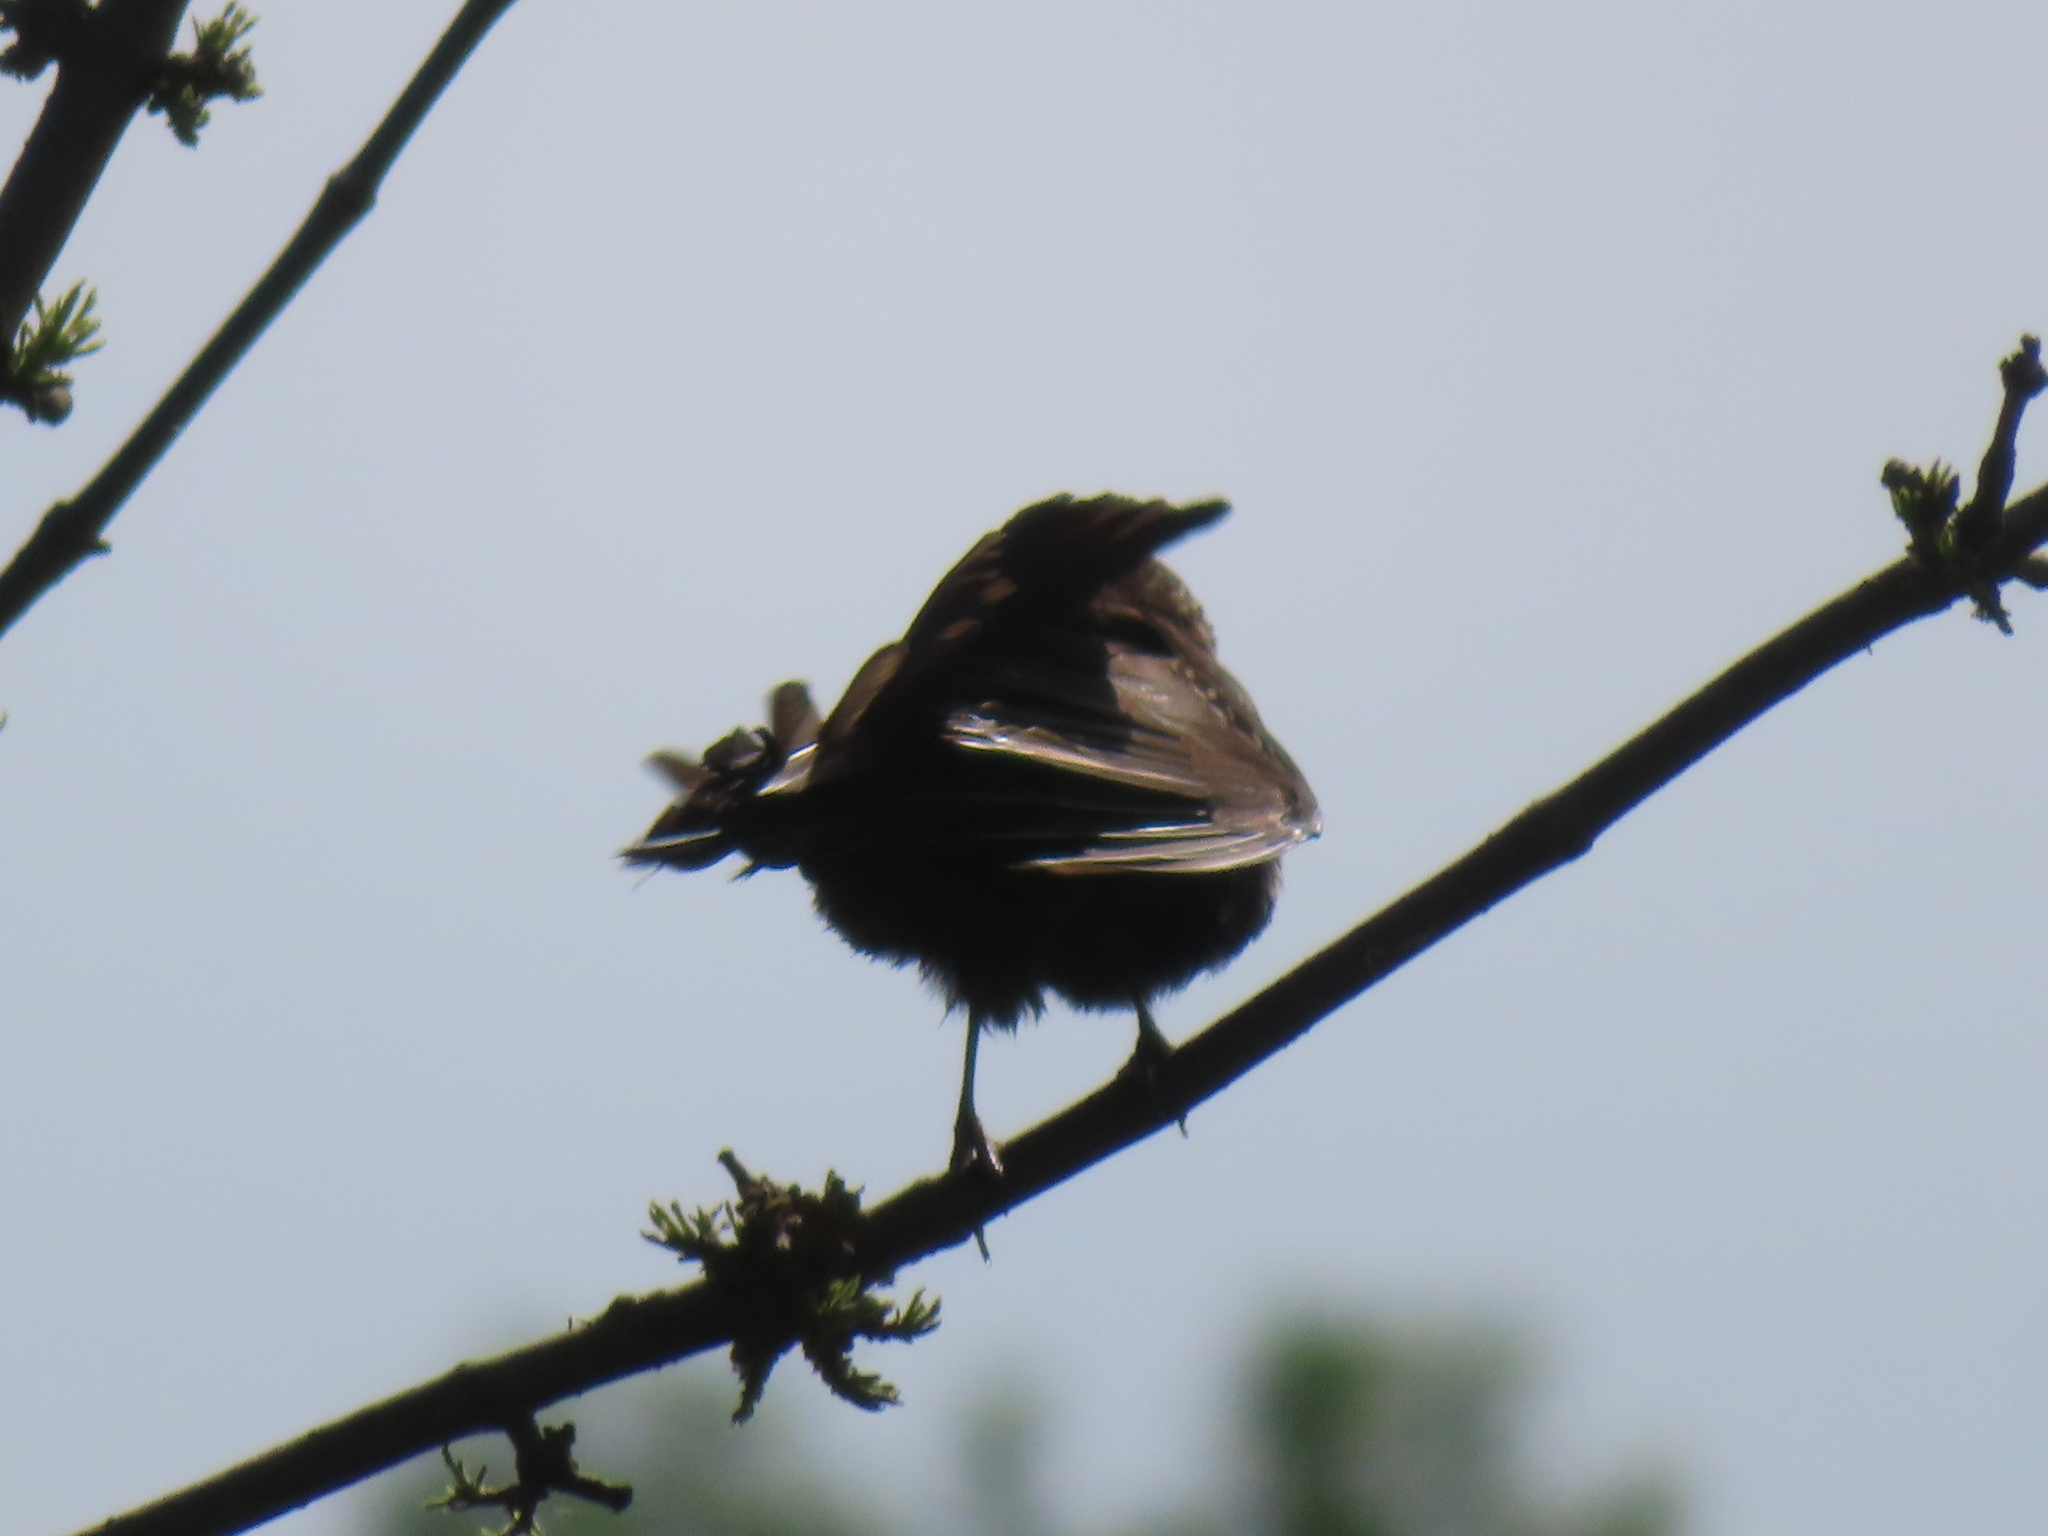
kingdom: Animalia
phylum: Chordata
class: Aves
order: Passeriformes
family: Icteridae
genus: Quiscalus
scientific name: Quiscalus quiscula
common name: Common grackle
